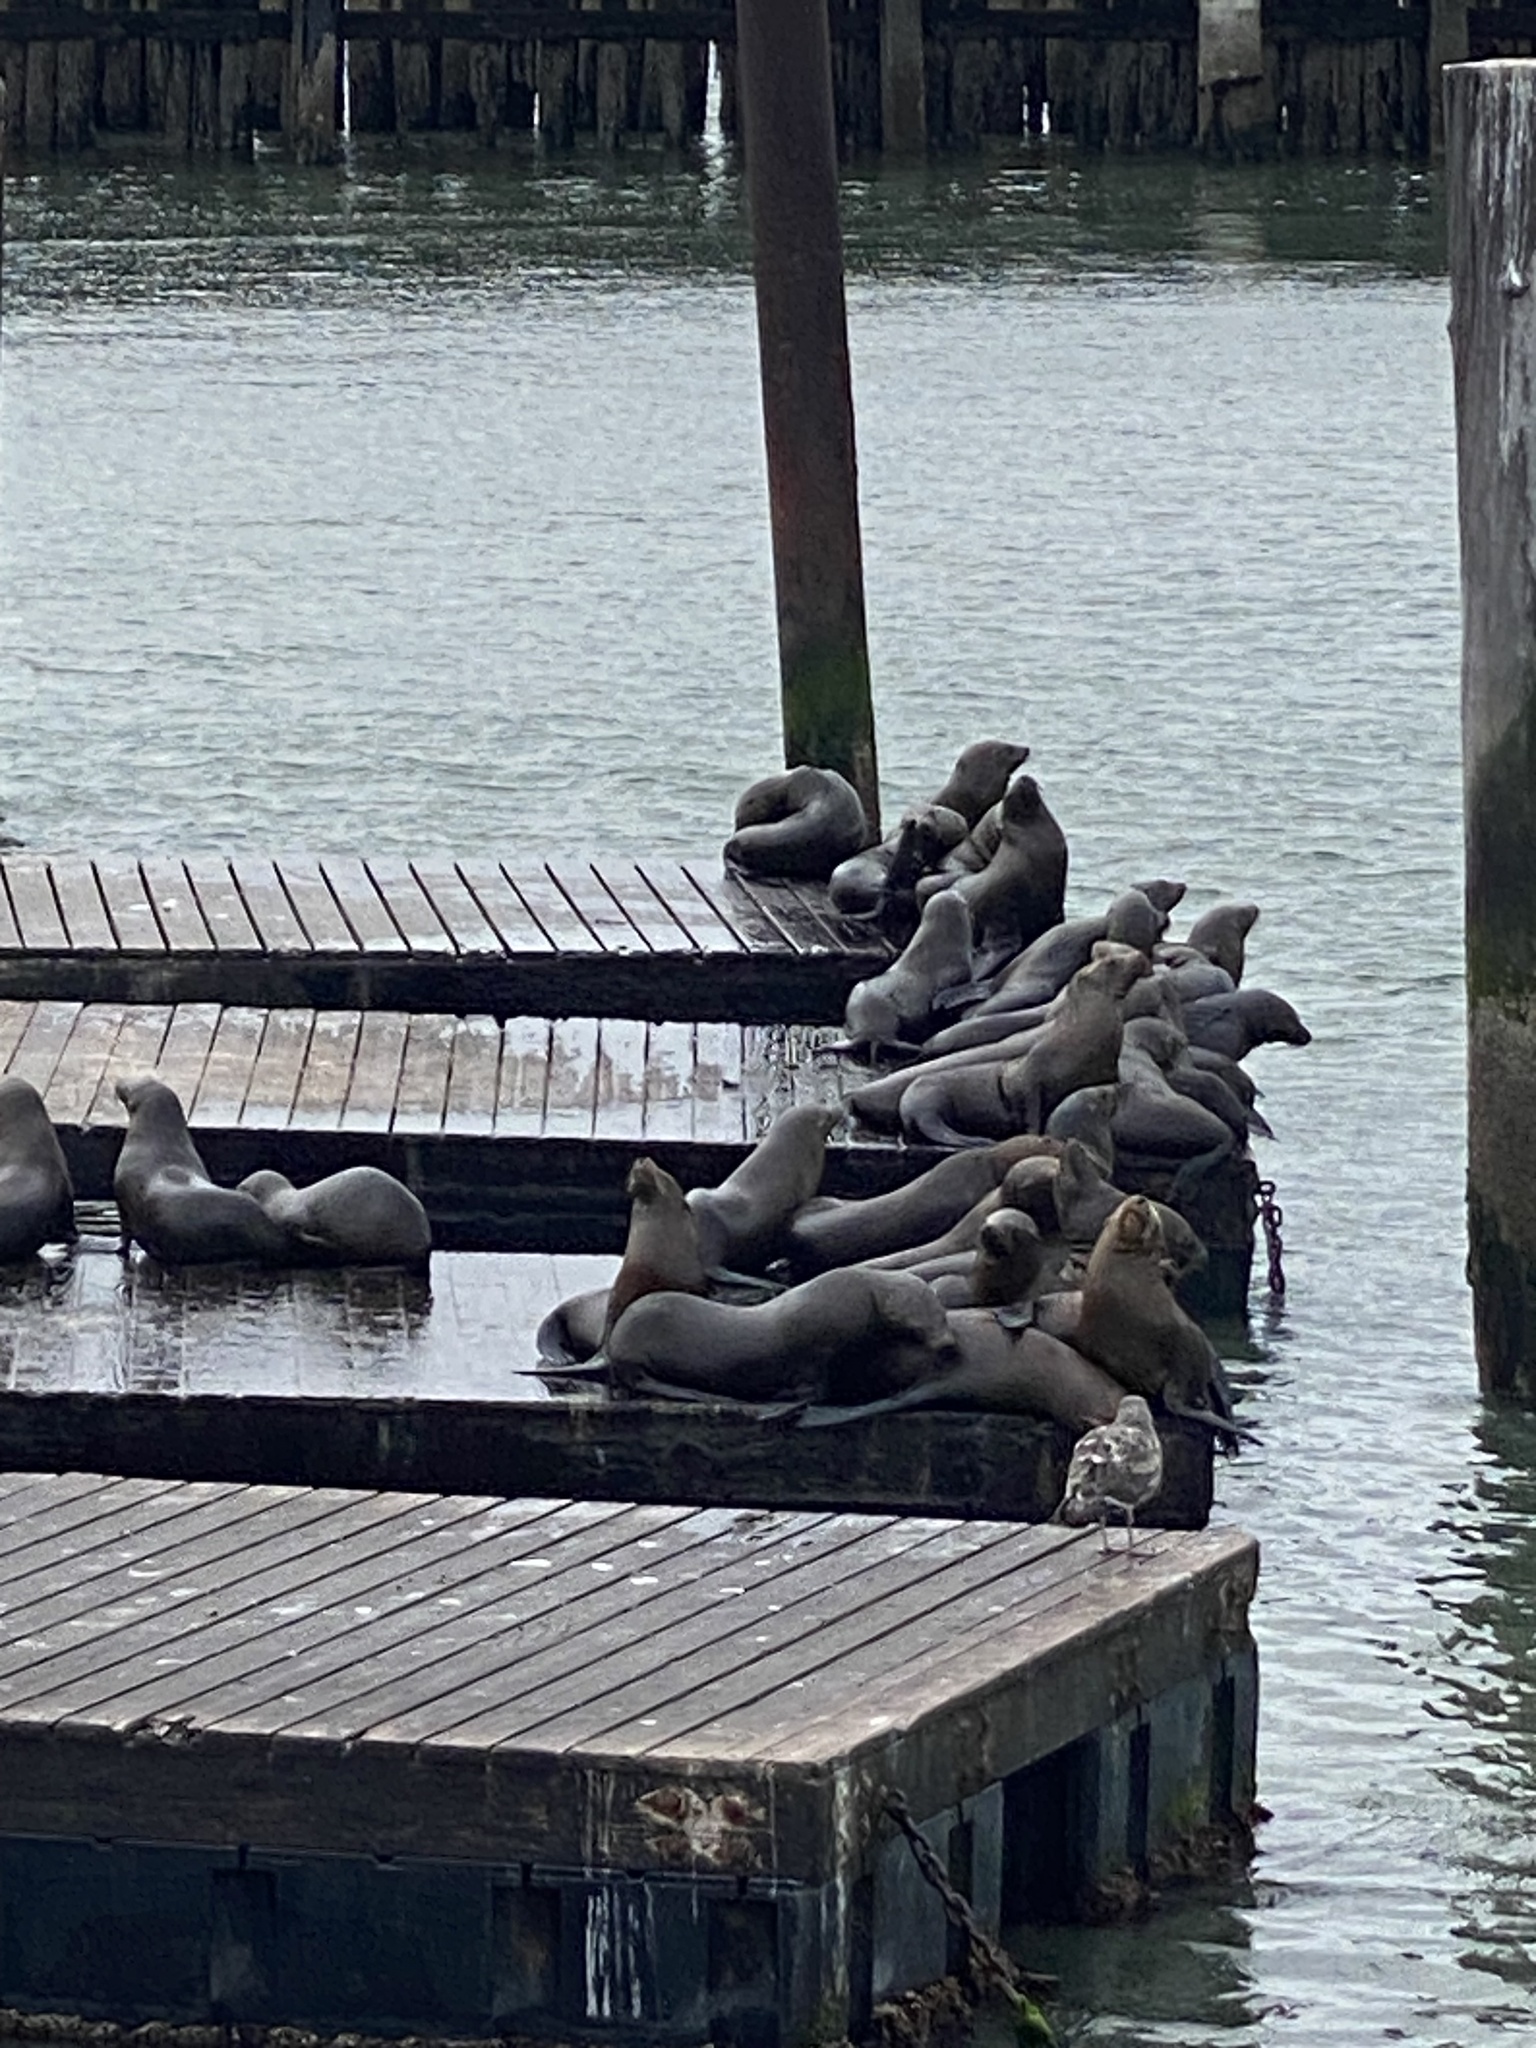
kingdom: Animalia
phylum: Chordata
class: Mammalia
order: Carnivora
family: Otariidae
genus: Zalophus
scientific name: Zalophus californianus
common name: California sea lion
